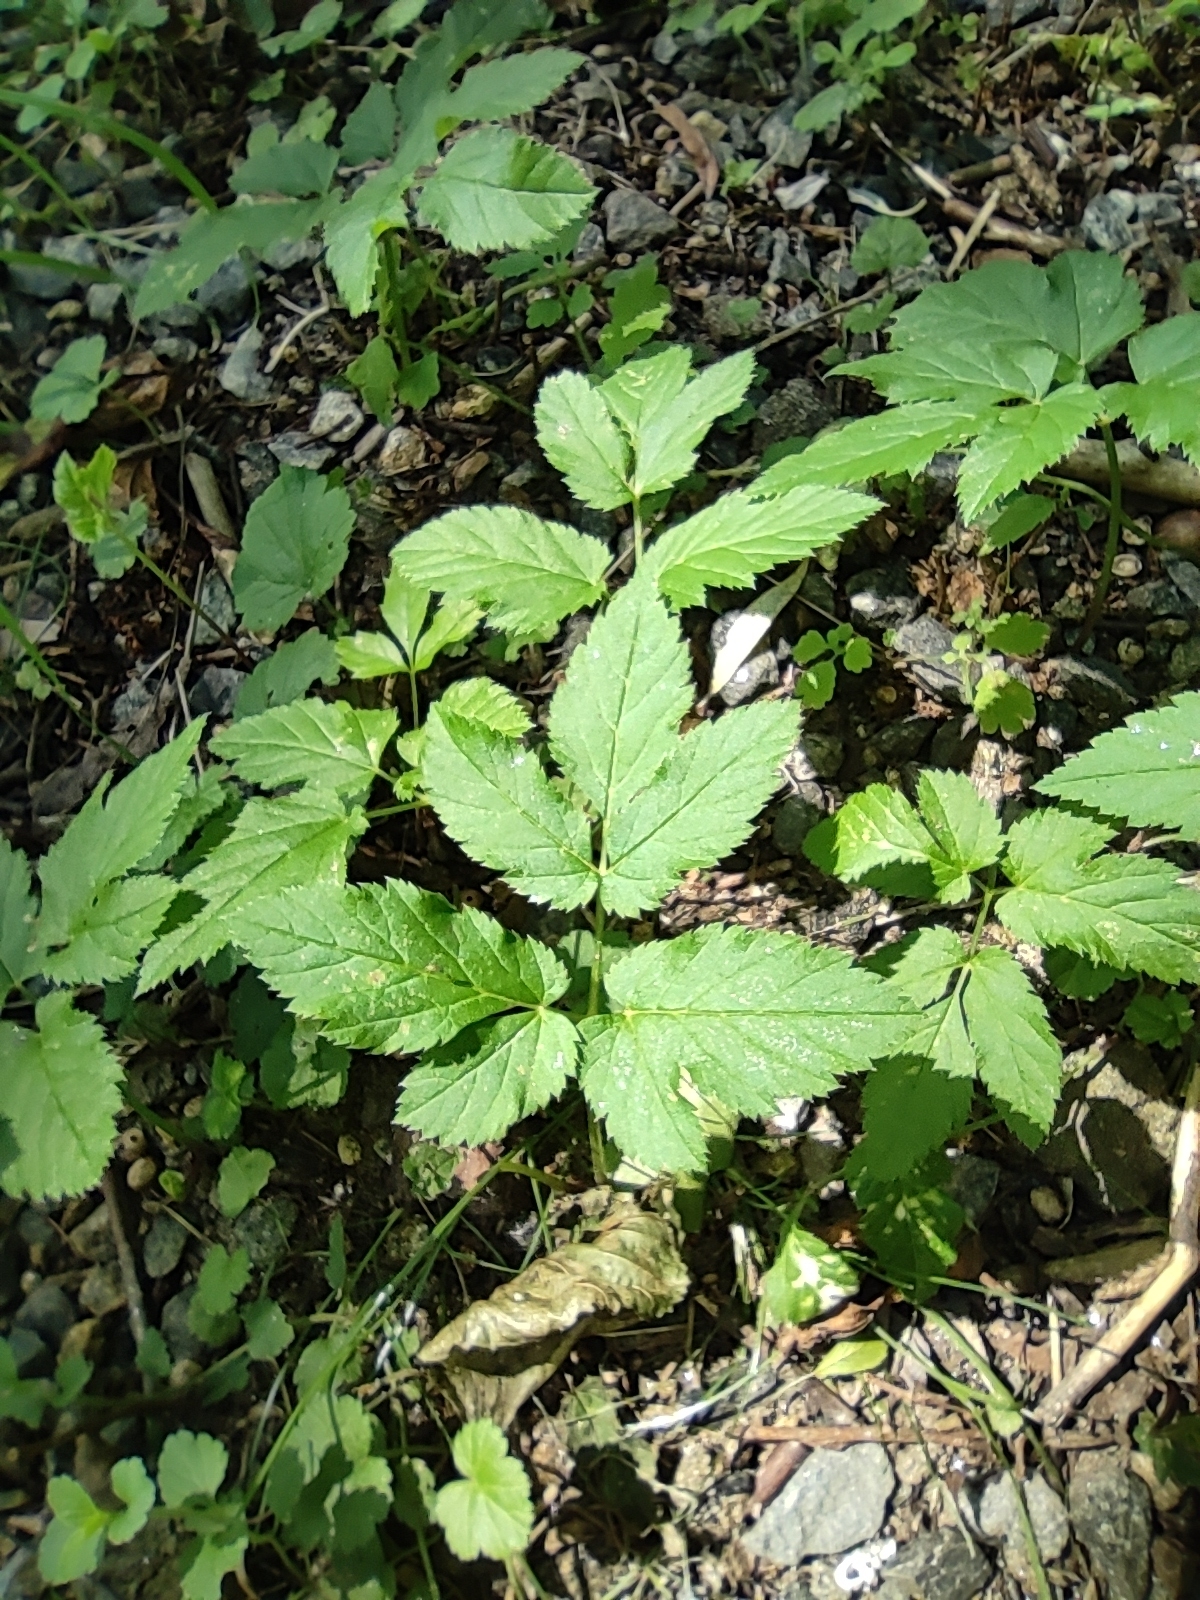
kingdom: Plantae
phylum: Tracheophyta
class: Magnoliopsida
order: Apiales
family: Apiaceae
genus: Aegopodium
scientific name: Aegopodium podagraria
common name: Ground-elder
